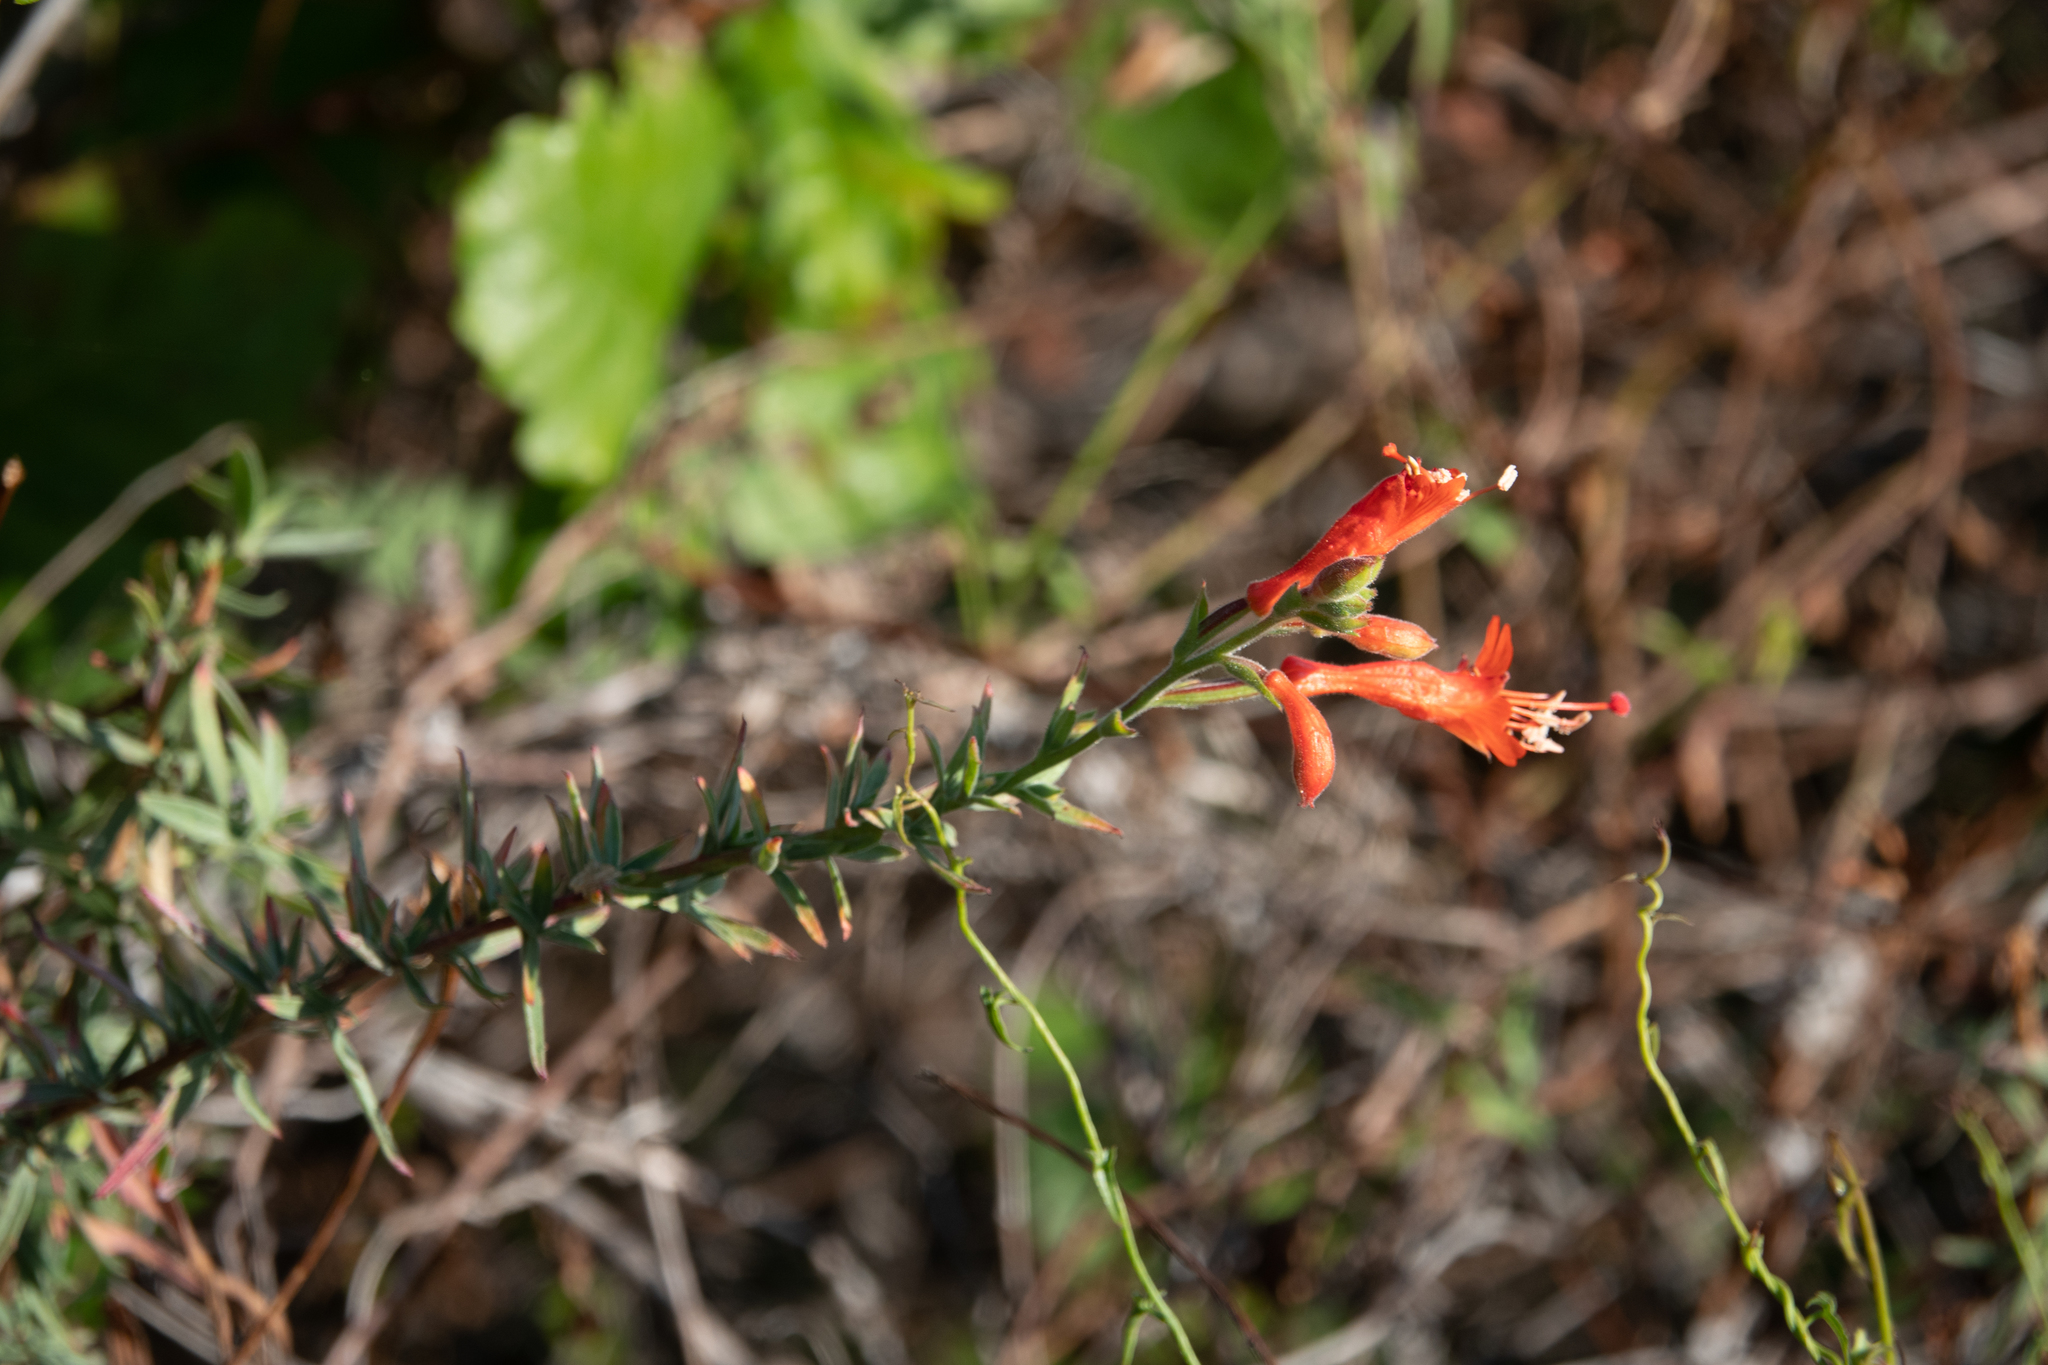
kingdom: Plantae
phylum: Tracheophyta
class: Magnoliopsida
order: Myrtales
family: Onagraceae
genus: Epilobium
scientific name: Epilobium canum
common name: California-fuchsia
